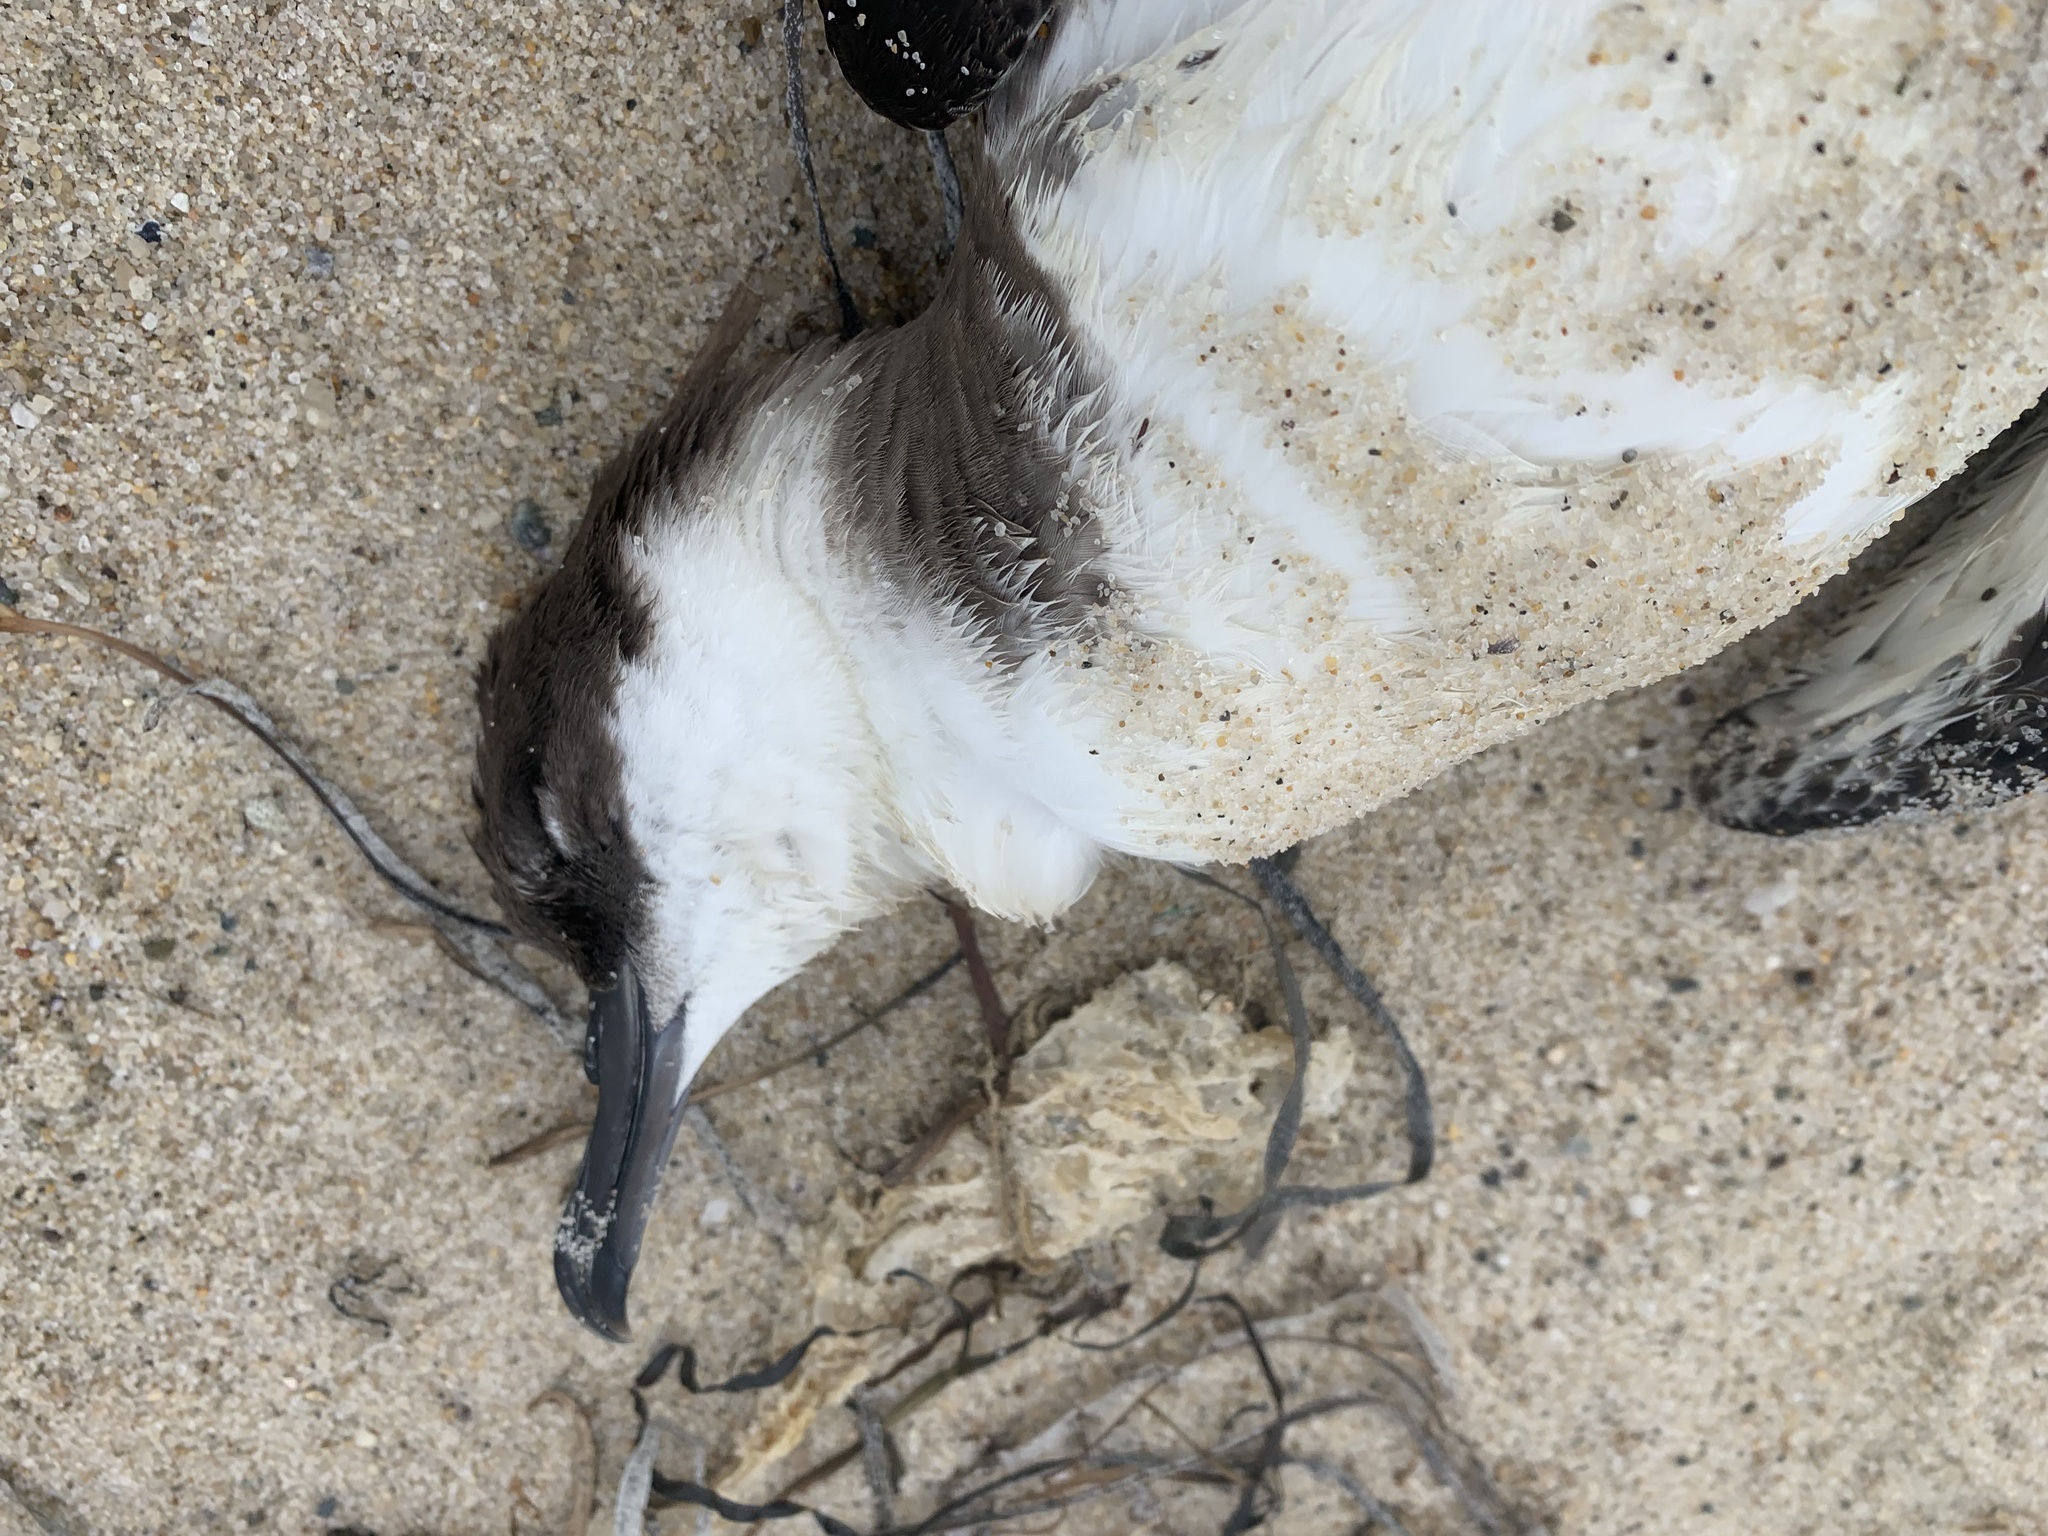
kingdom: Animalia
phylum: Chordata
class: Aves
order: Procellariiformes
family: Procellariidae
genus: Puffinus
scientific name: Puffinus gravis
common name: Great shearwater
